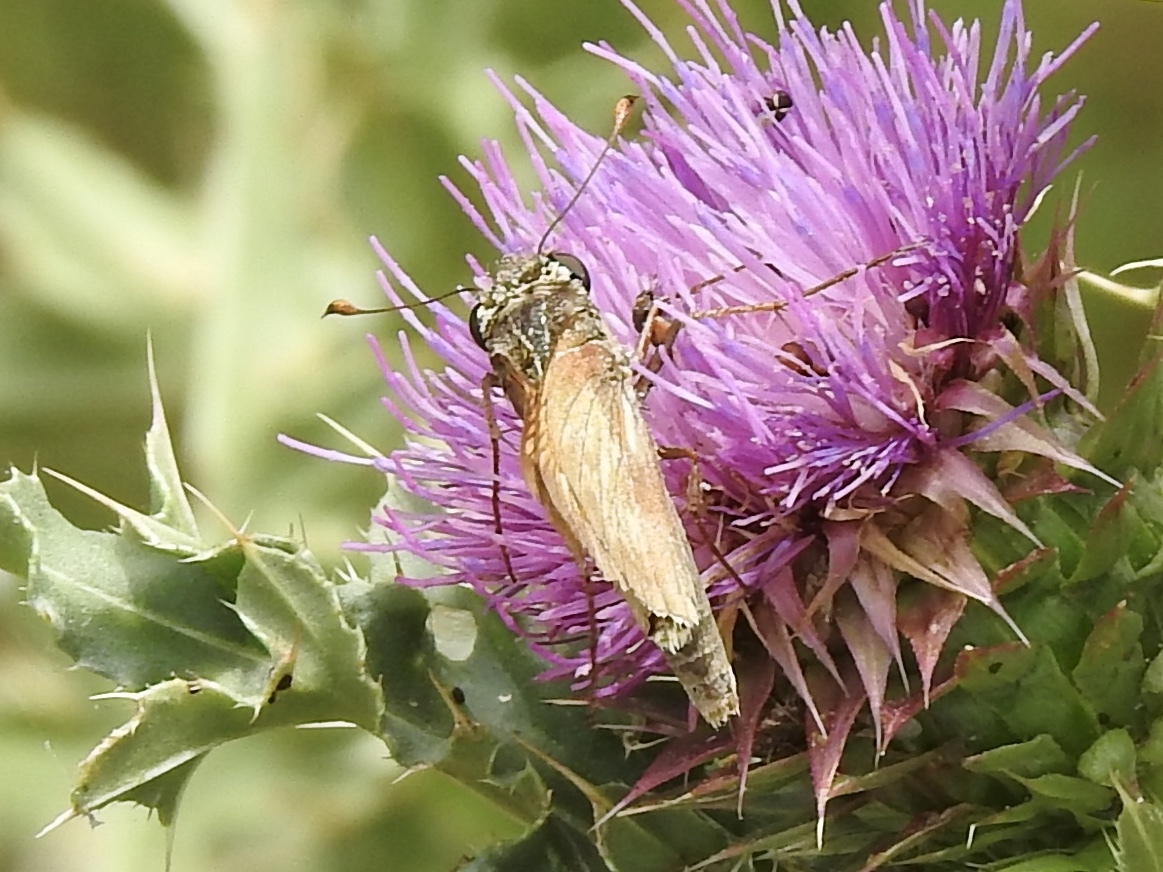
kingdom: Animalia
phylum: Arthropoda
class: Insecta
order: Lepidoptera
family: Hesperiidae
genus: Atalopedes
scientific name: Atalopedes
